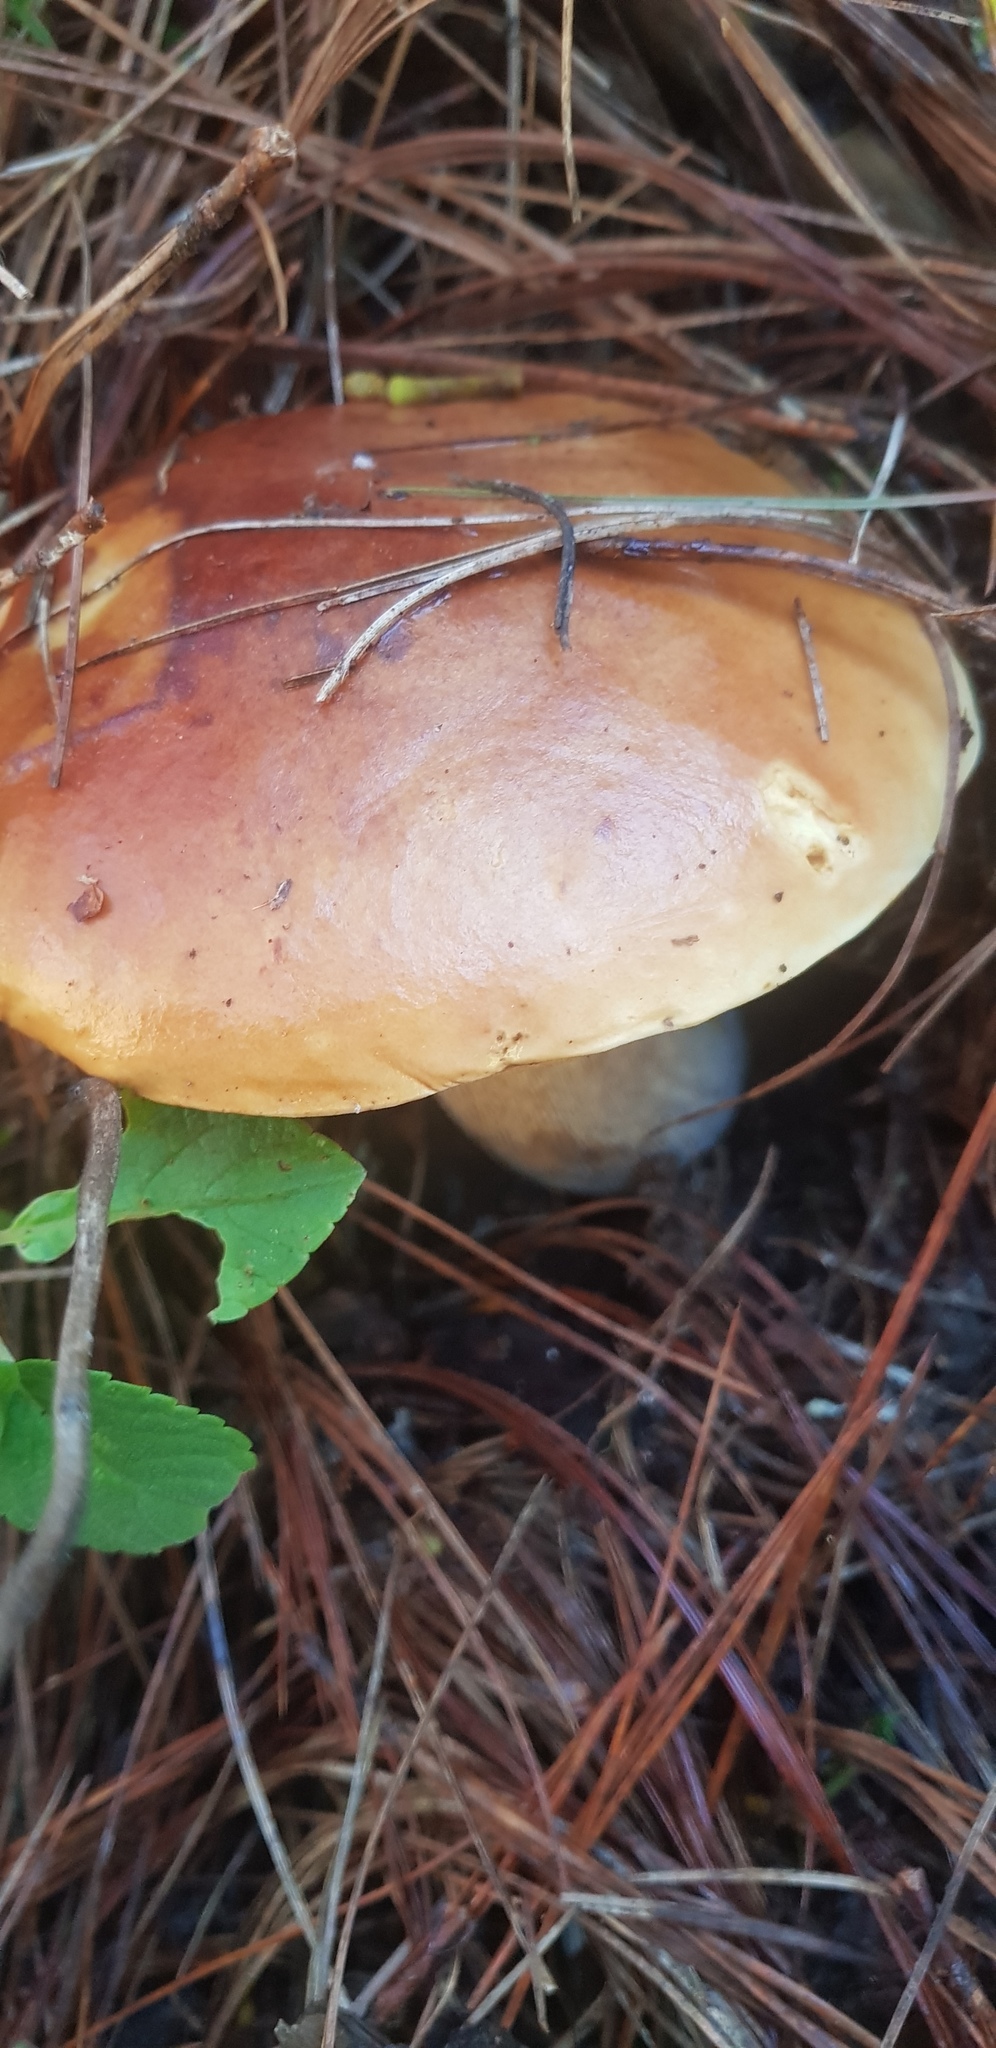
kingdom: Fungi
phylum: Basidiomycota
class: Agaricomycetes
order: Boletales
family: Boletaceae
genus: Boletus
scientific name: Boletus rubriceps
